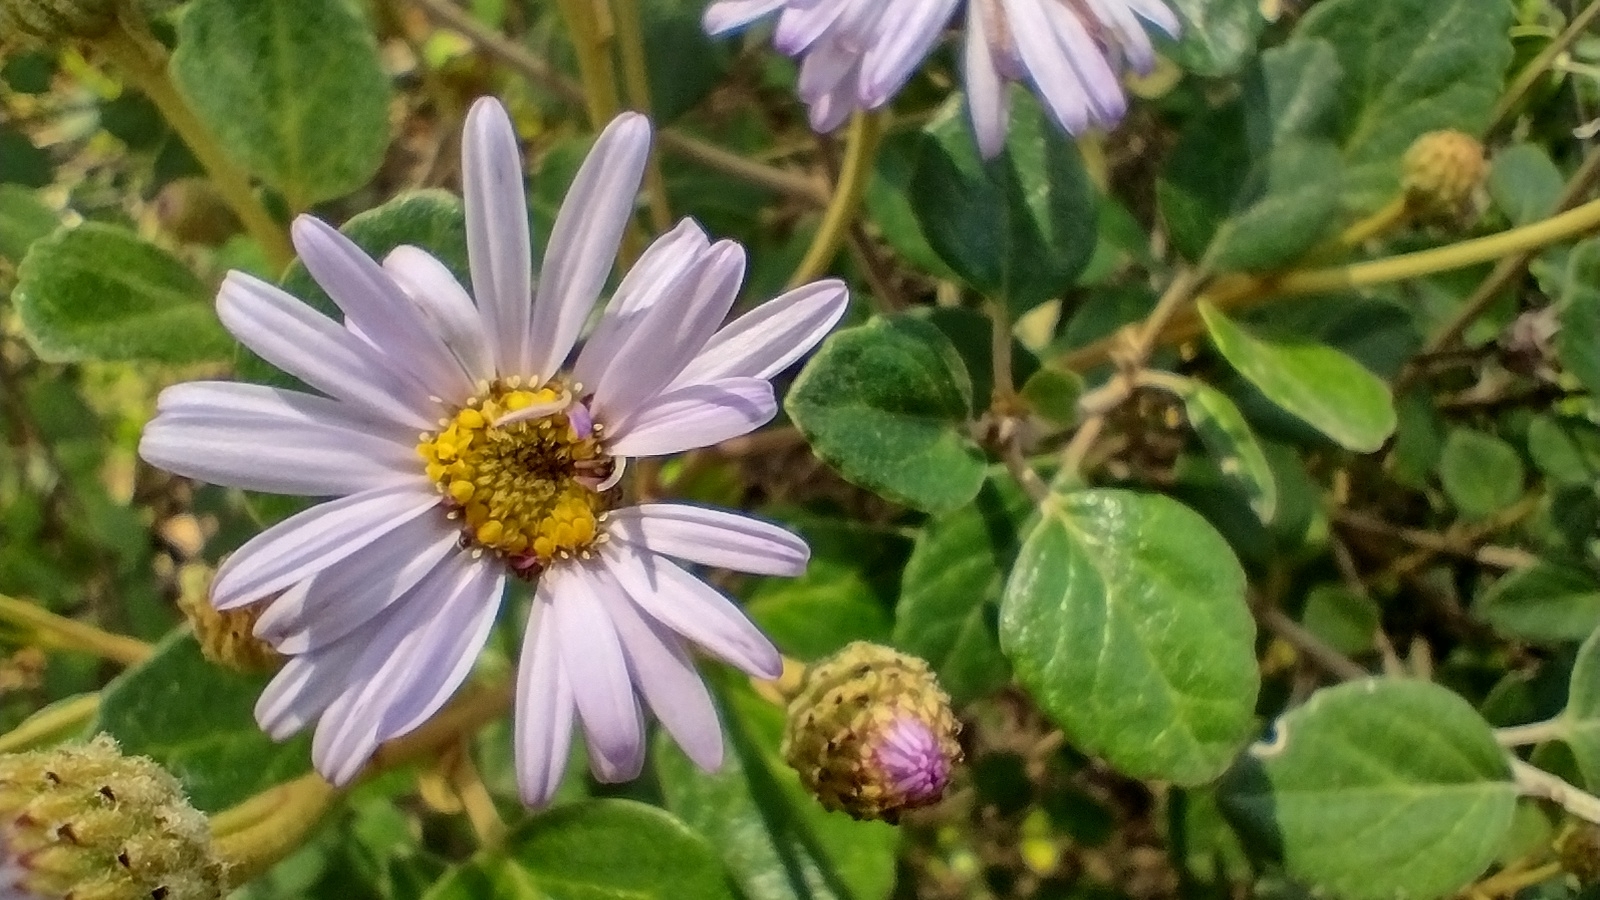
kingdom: Plantae
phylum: Tracheophyta
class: Magnoliopsida
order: Asterales
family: Asteraceae
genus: Olearia
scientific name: Olearia tomentosa
